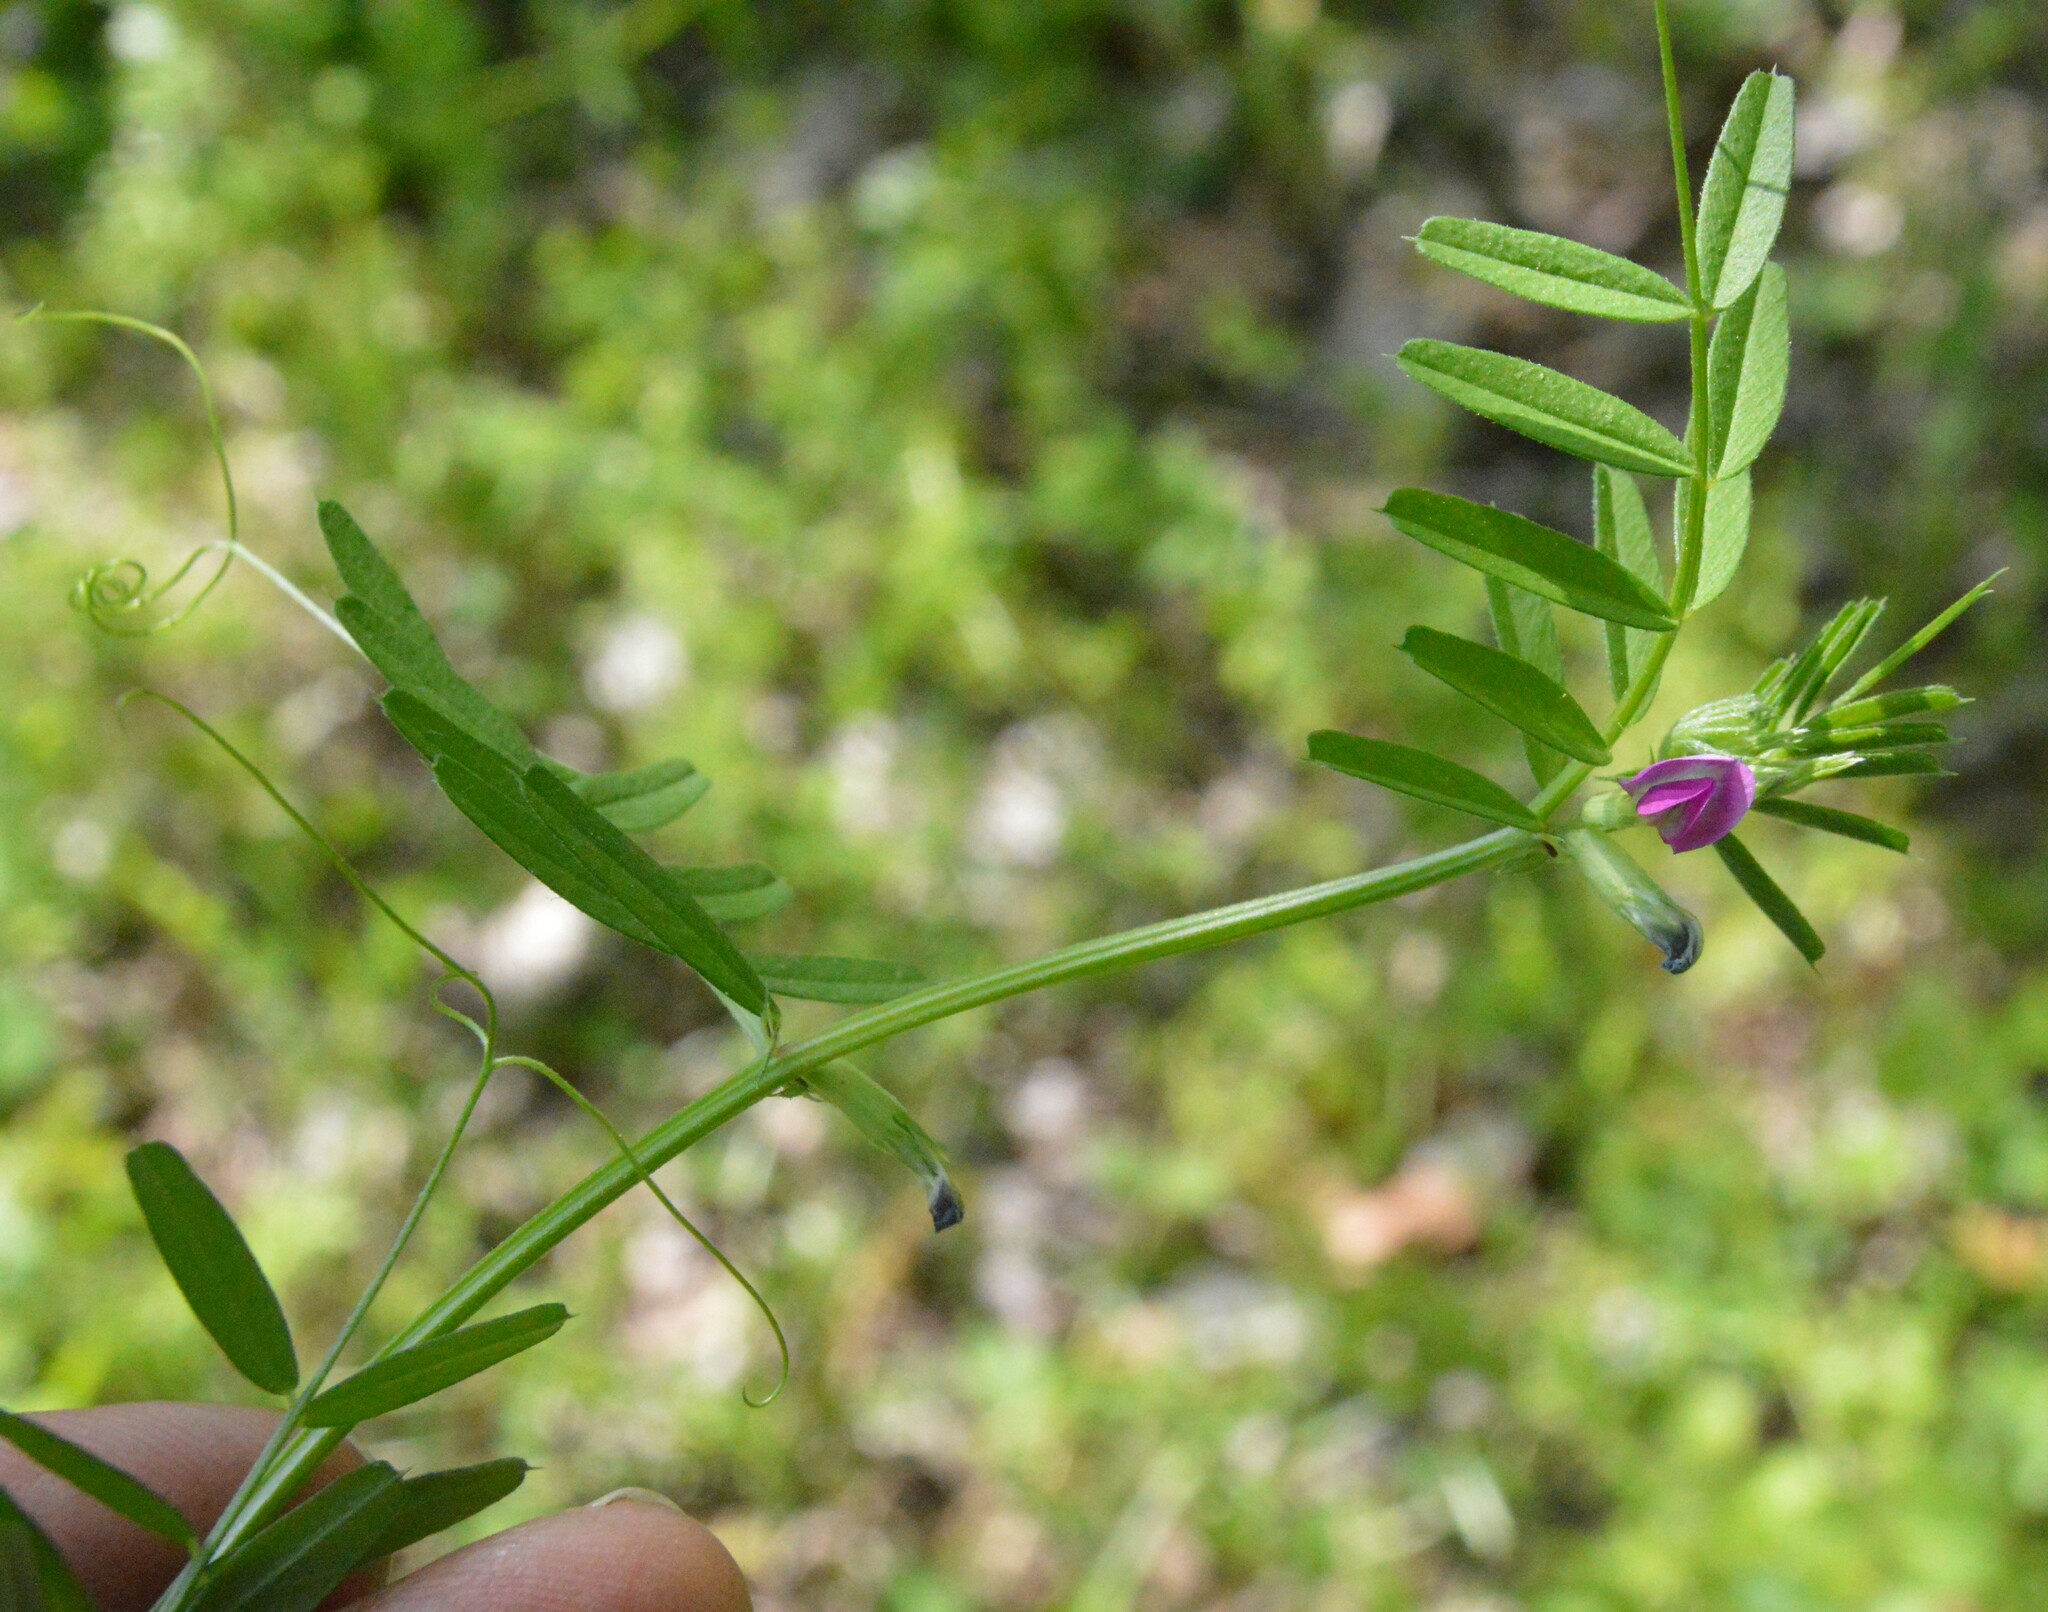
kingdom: Plantae
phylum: Tracheophyta
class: Magnoliopsida
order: Fabales
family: Fabaceae
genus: Vicia
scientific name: Vicia sativa
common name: Garden vetch
